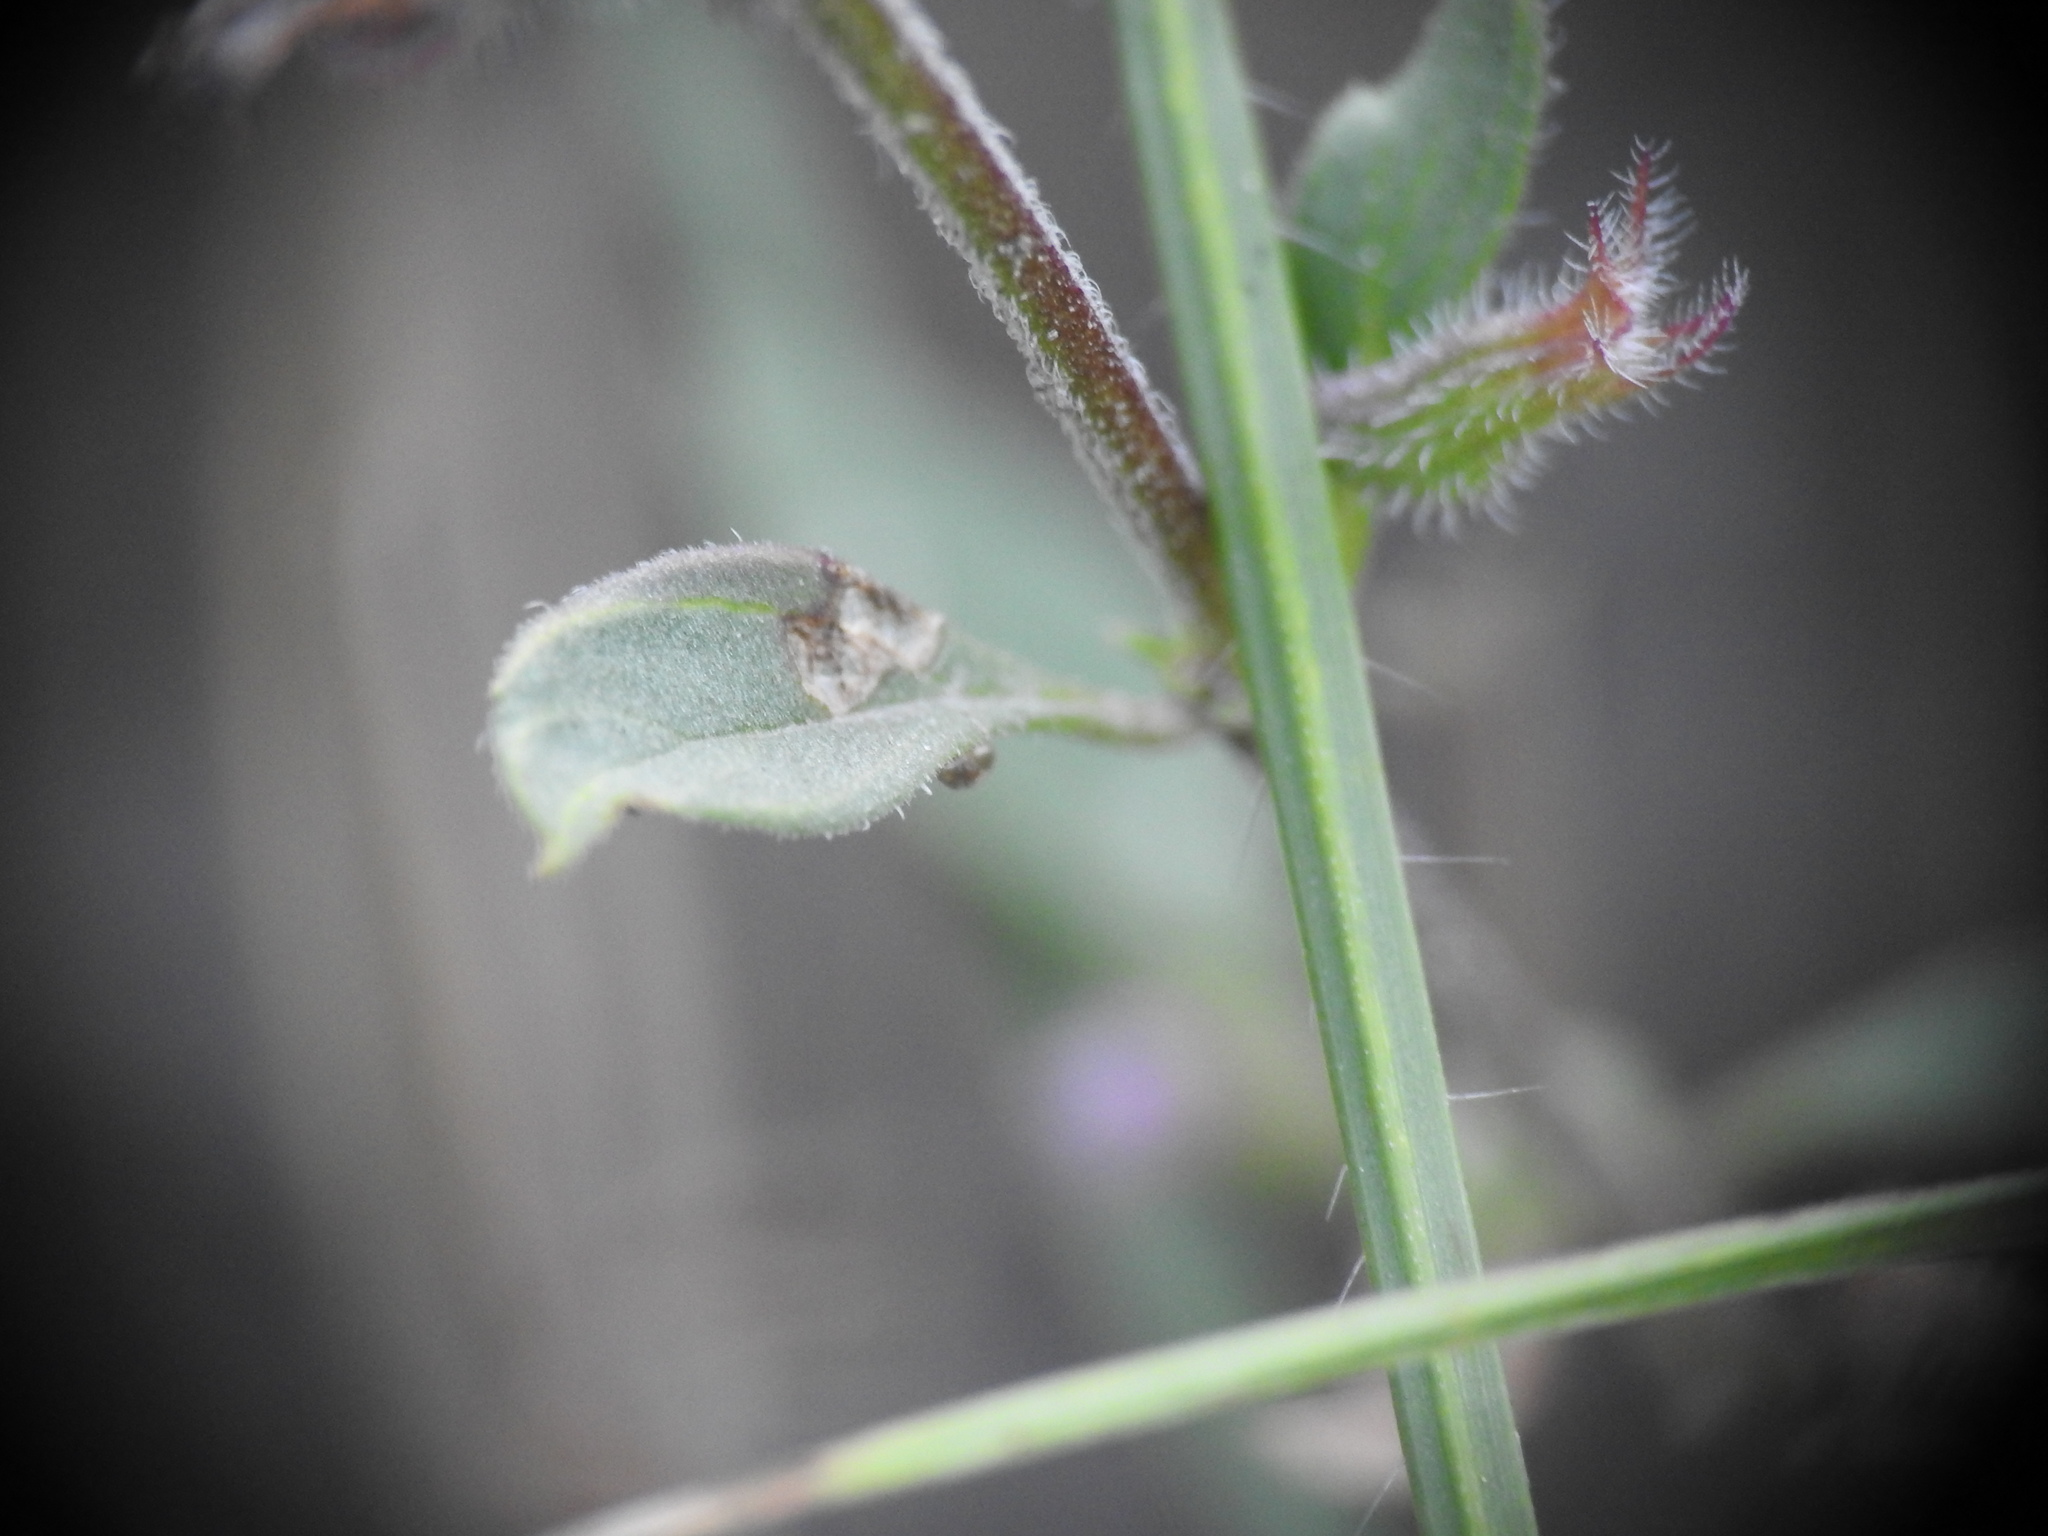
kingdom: Plantae
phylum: Tracheophyta
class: Magnoliopsida
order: Lamiales
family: Lamiaceae
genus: Clinopodium
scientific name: Clinopodium acinos
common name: Basil thyme
